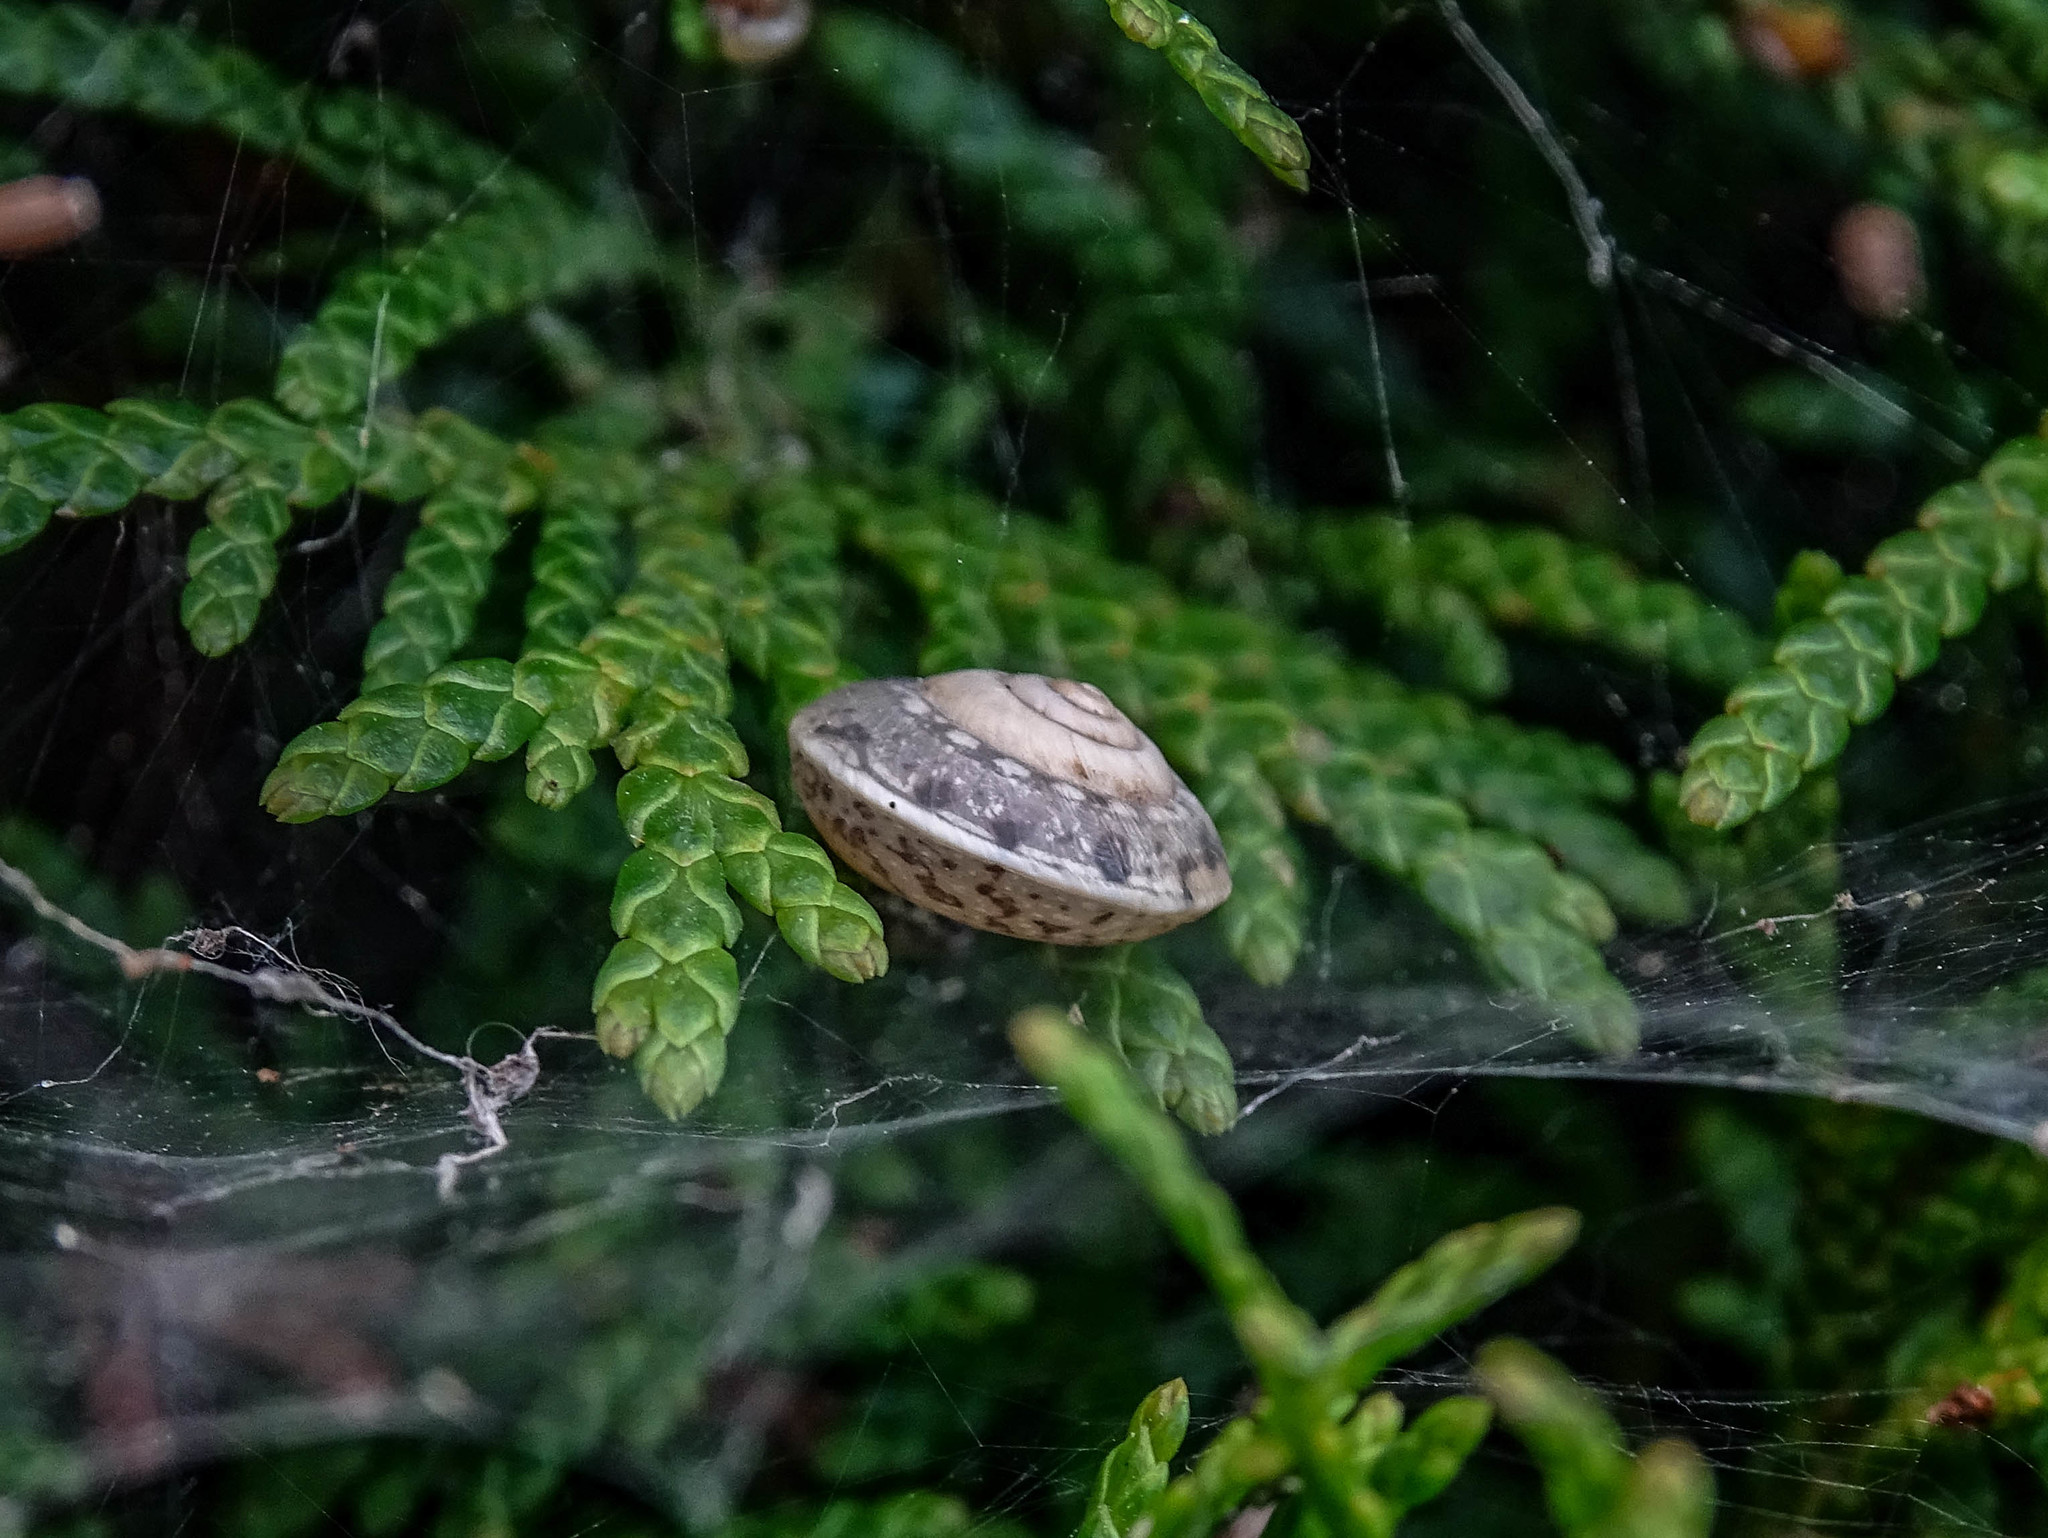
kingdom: Animalia
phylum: Mollusca
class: Gastropoda
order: Stylommatophora
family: Hygromiidae
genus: Hygromia
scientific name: Hygromia cinctella
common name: Girdled snail
